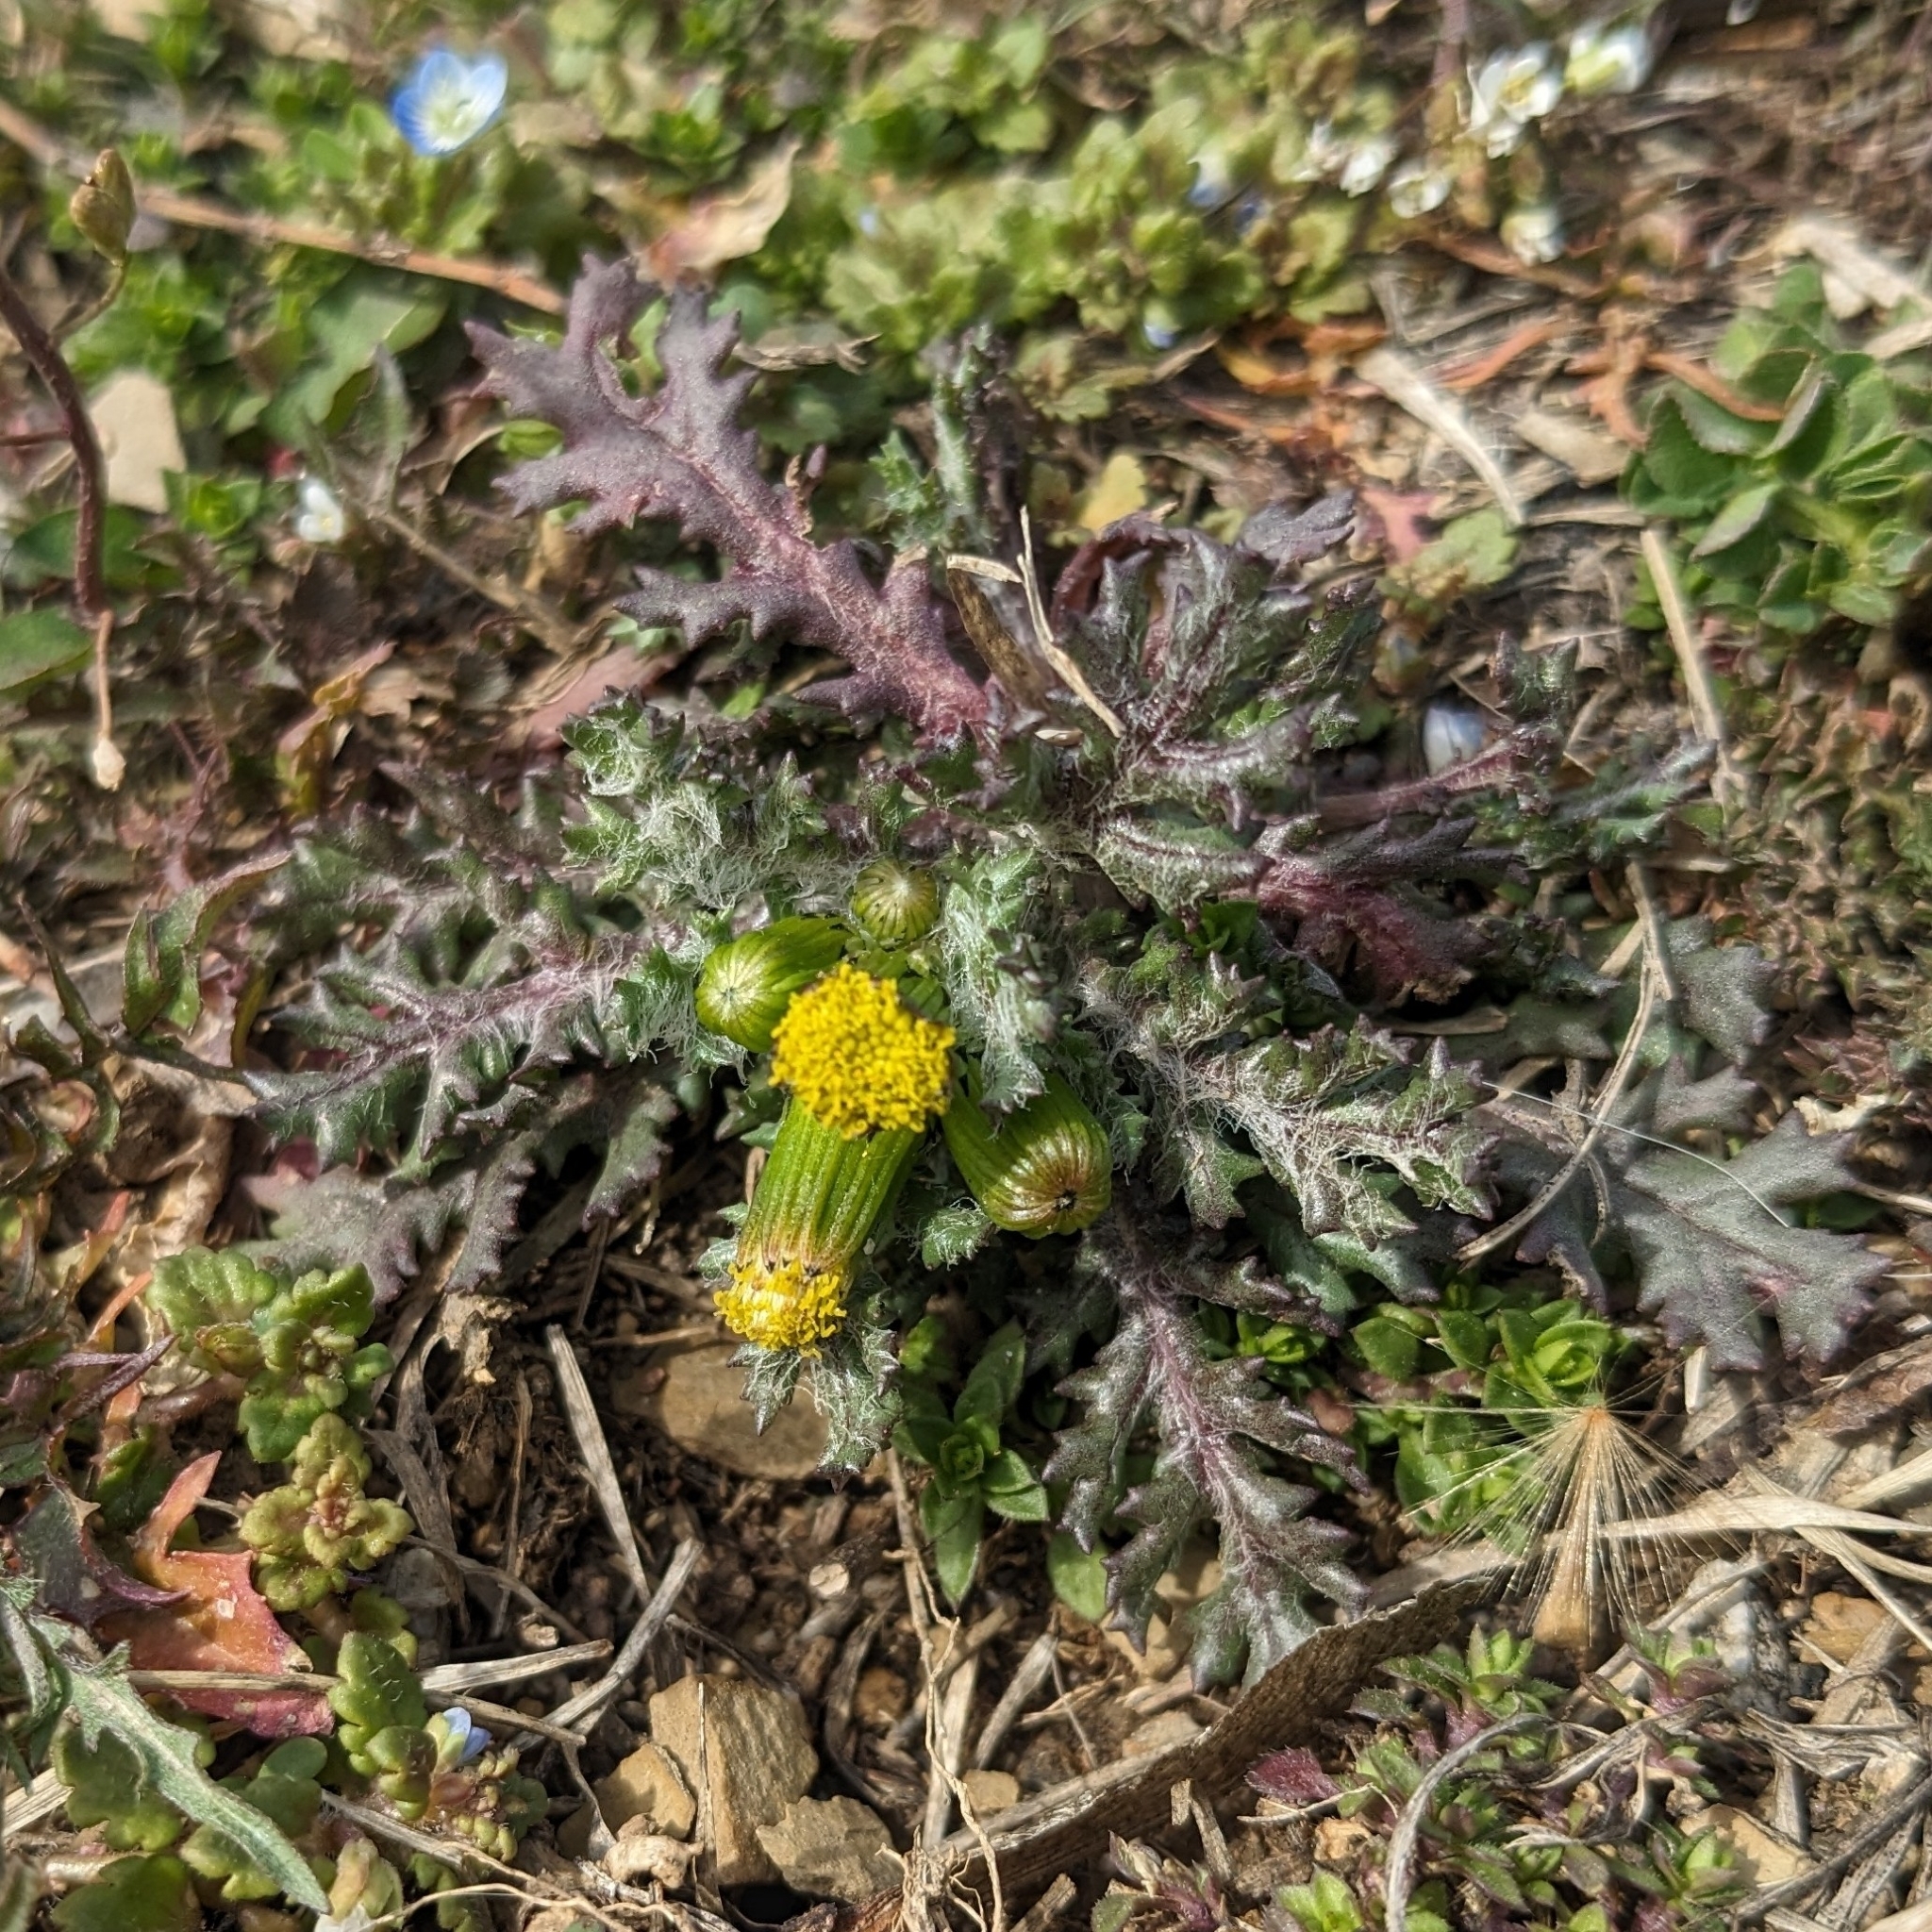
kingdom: Plantae
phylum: Tracheophyta
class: Magnoliopsida
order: Asterales
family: Asteraceae
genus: Senecio
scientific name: Senecio vulgaris
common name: Old-man-in-the-spring
